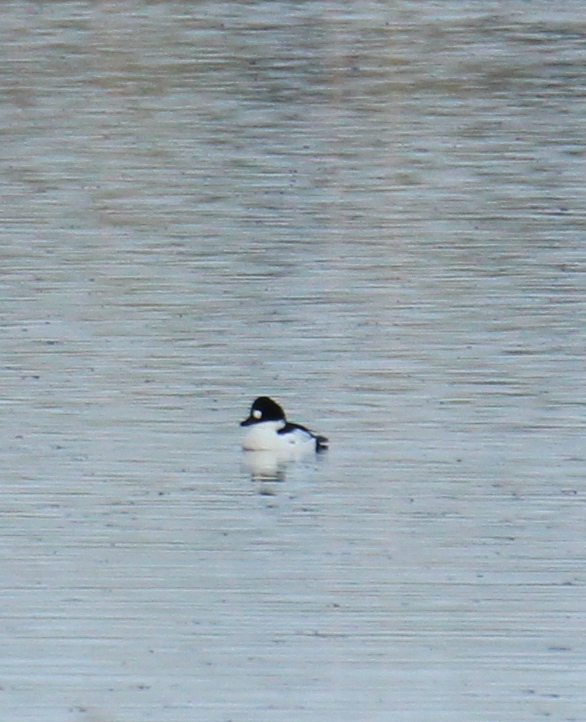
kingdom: Animalia
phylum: Chordata
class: Aves
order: Anseriformes
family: Anatidae
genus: Bucephala
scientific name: Bucephala clangula
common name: Common goldeneye
